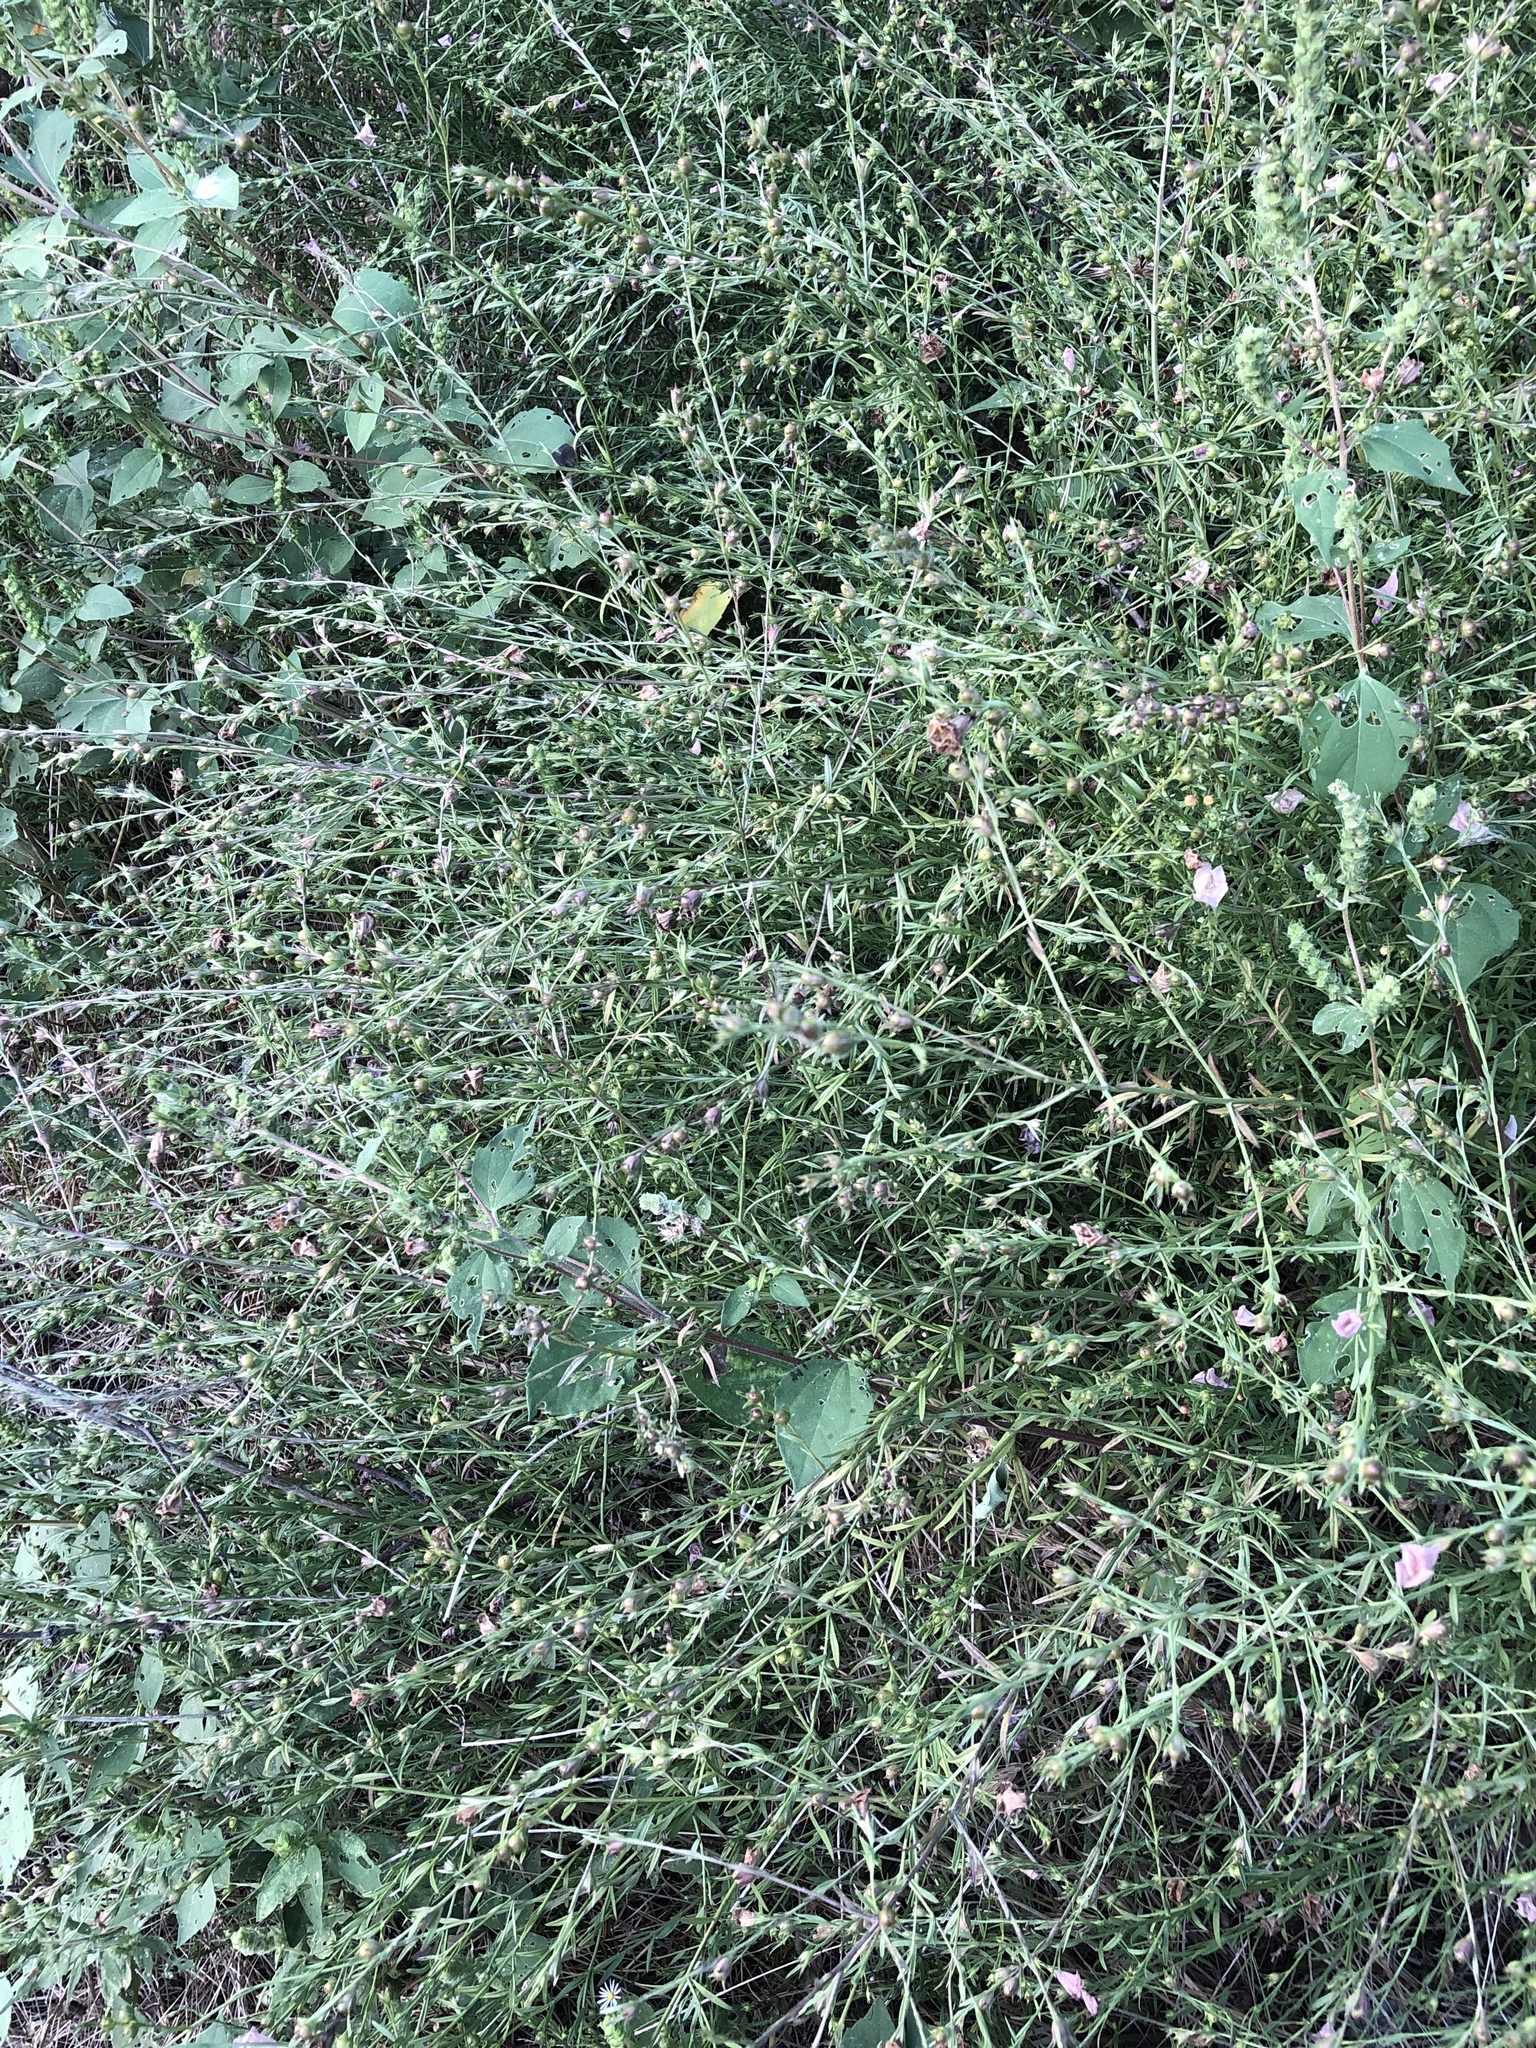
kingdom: Plantae
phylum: Tracheophyta
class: Magnoliopsida
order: Lamiales
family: Orobanchaceae
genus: Agalinis
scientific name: Agalinis heterophylla
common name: Prairie agalinis
